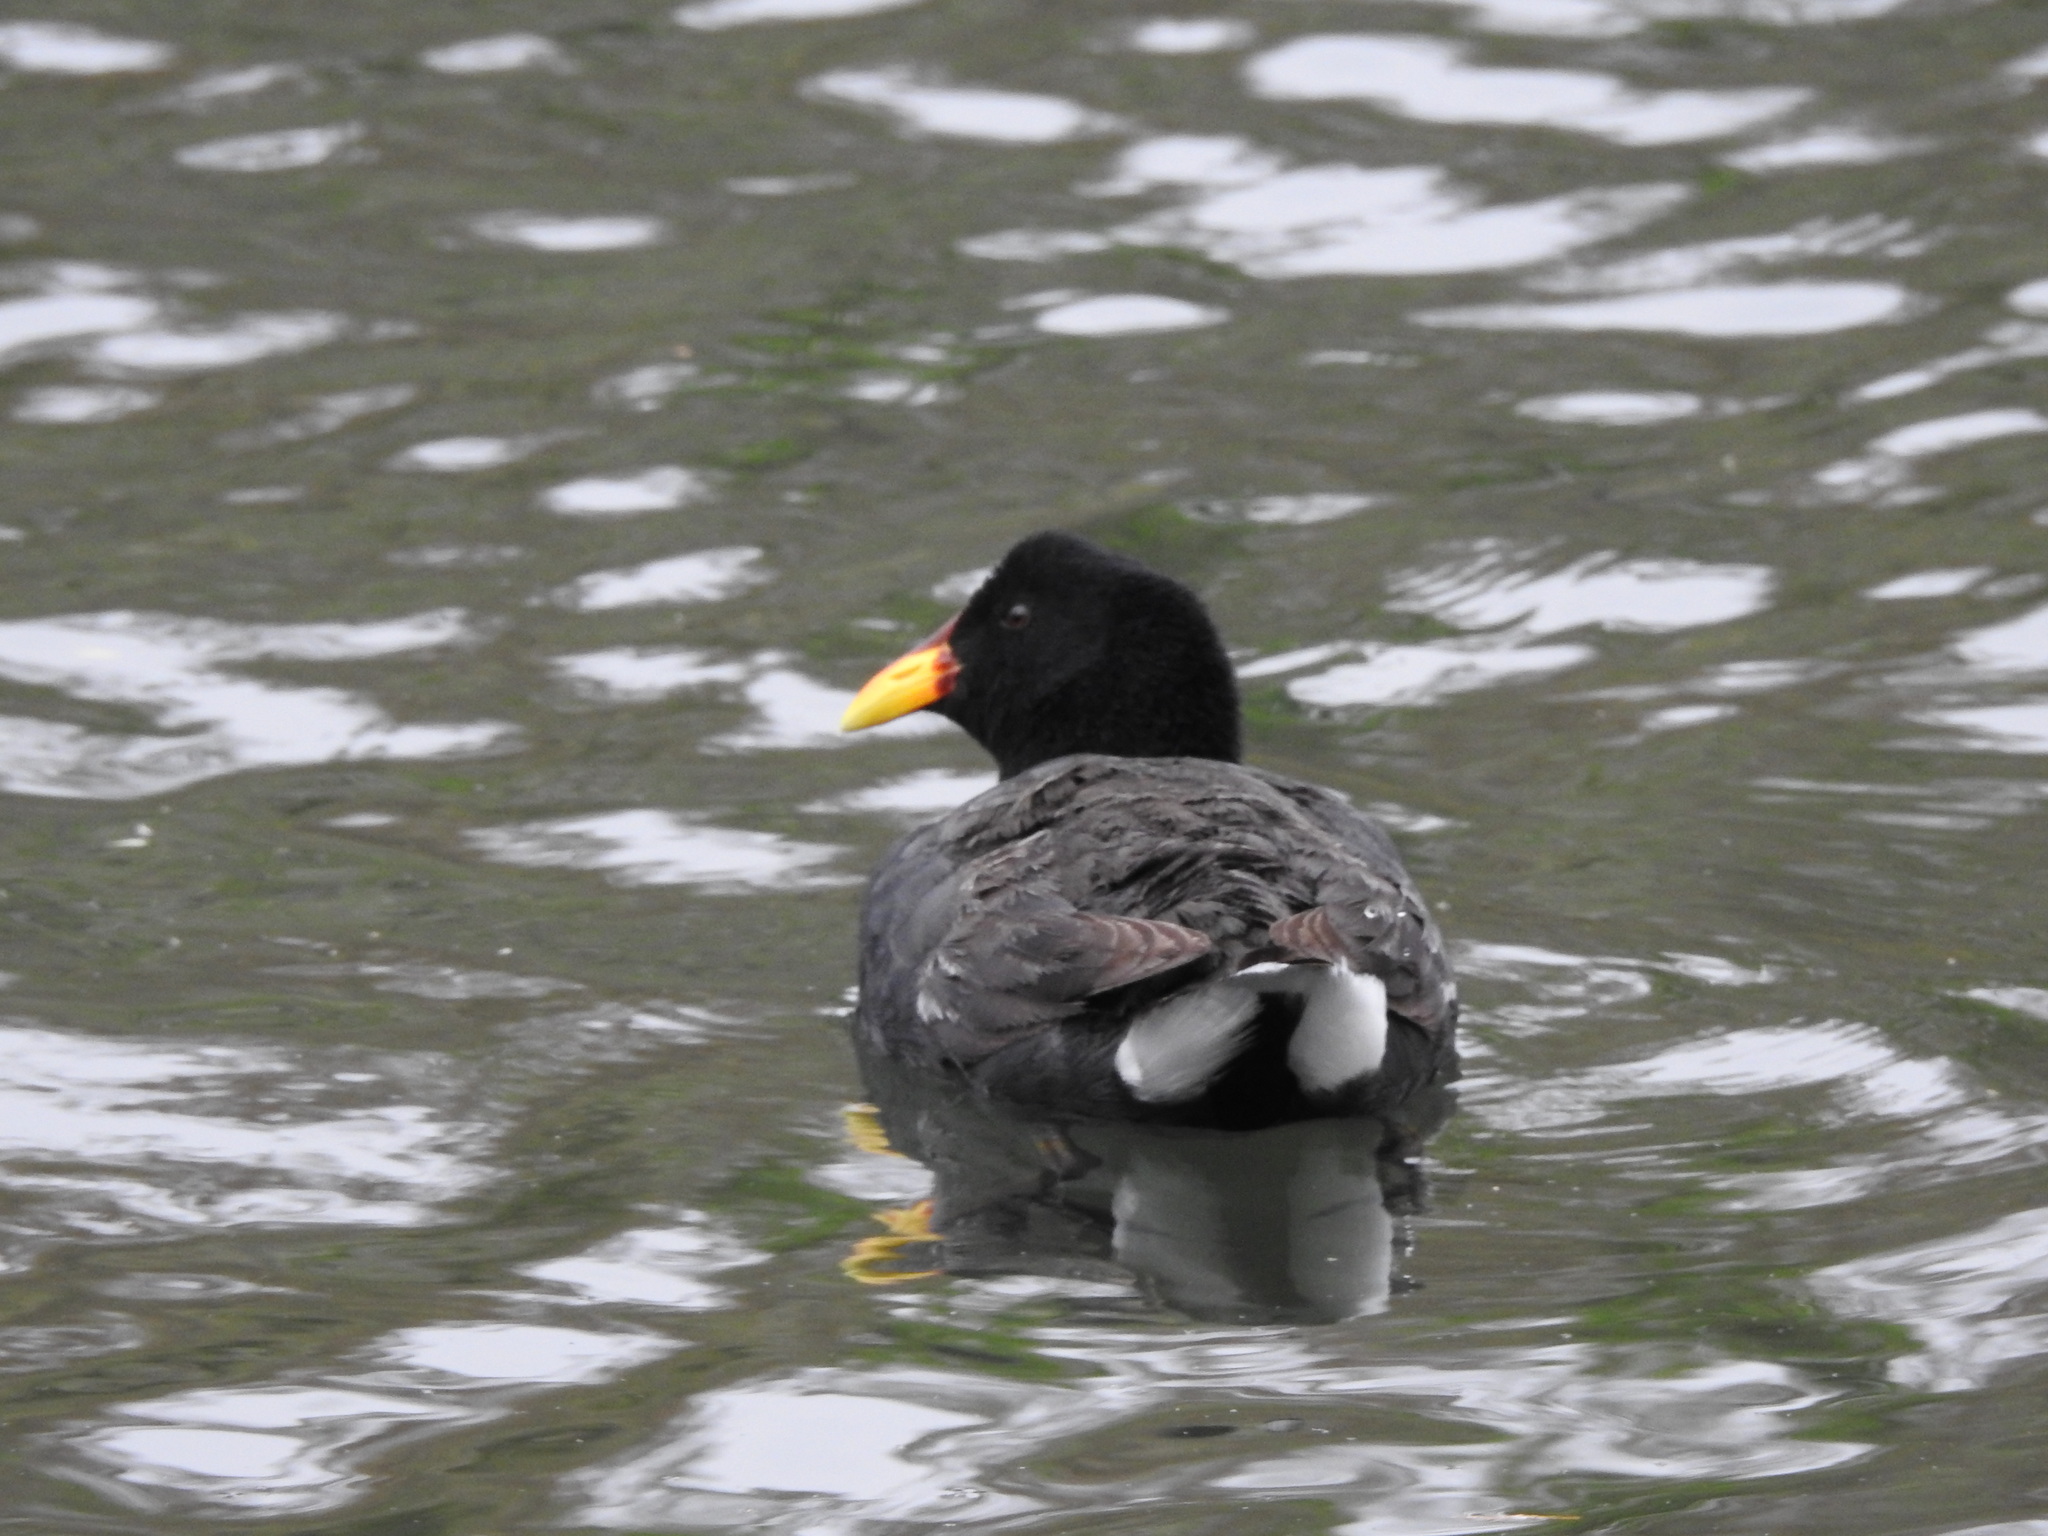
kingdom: Animalia
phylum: Chordata
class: Aves
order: Gruiformes
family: Rallidae
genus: Fulica
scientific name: Fulica rufifrons
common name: Red-fronted coot
